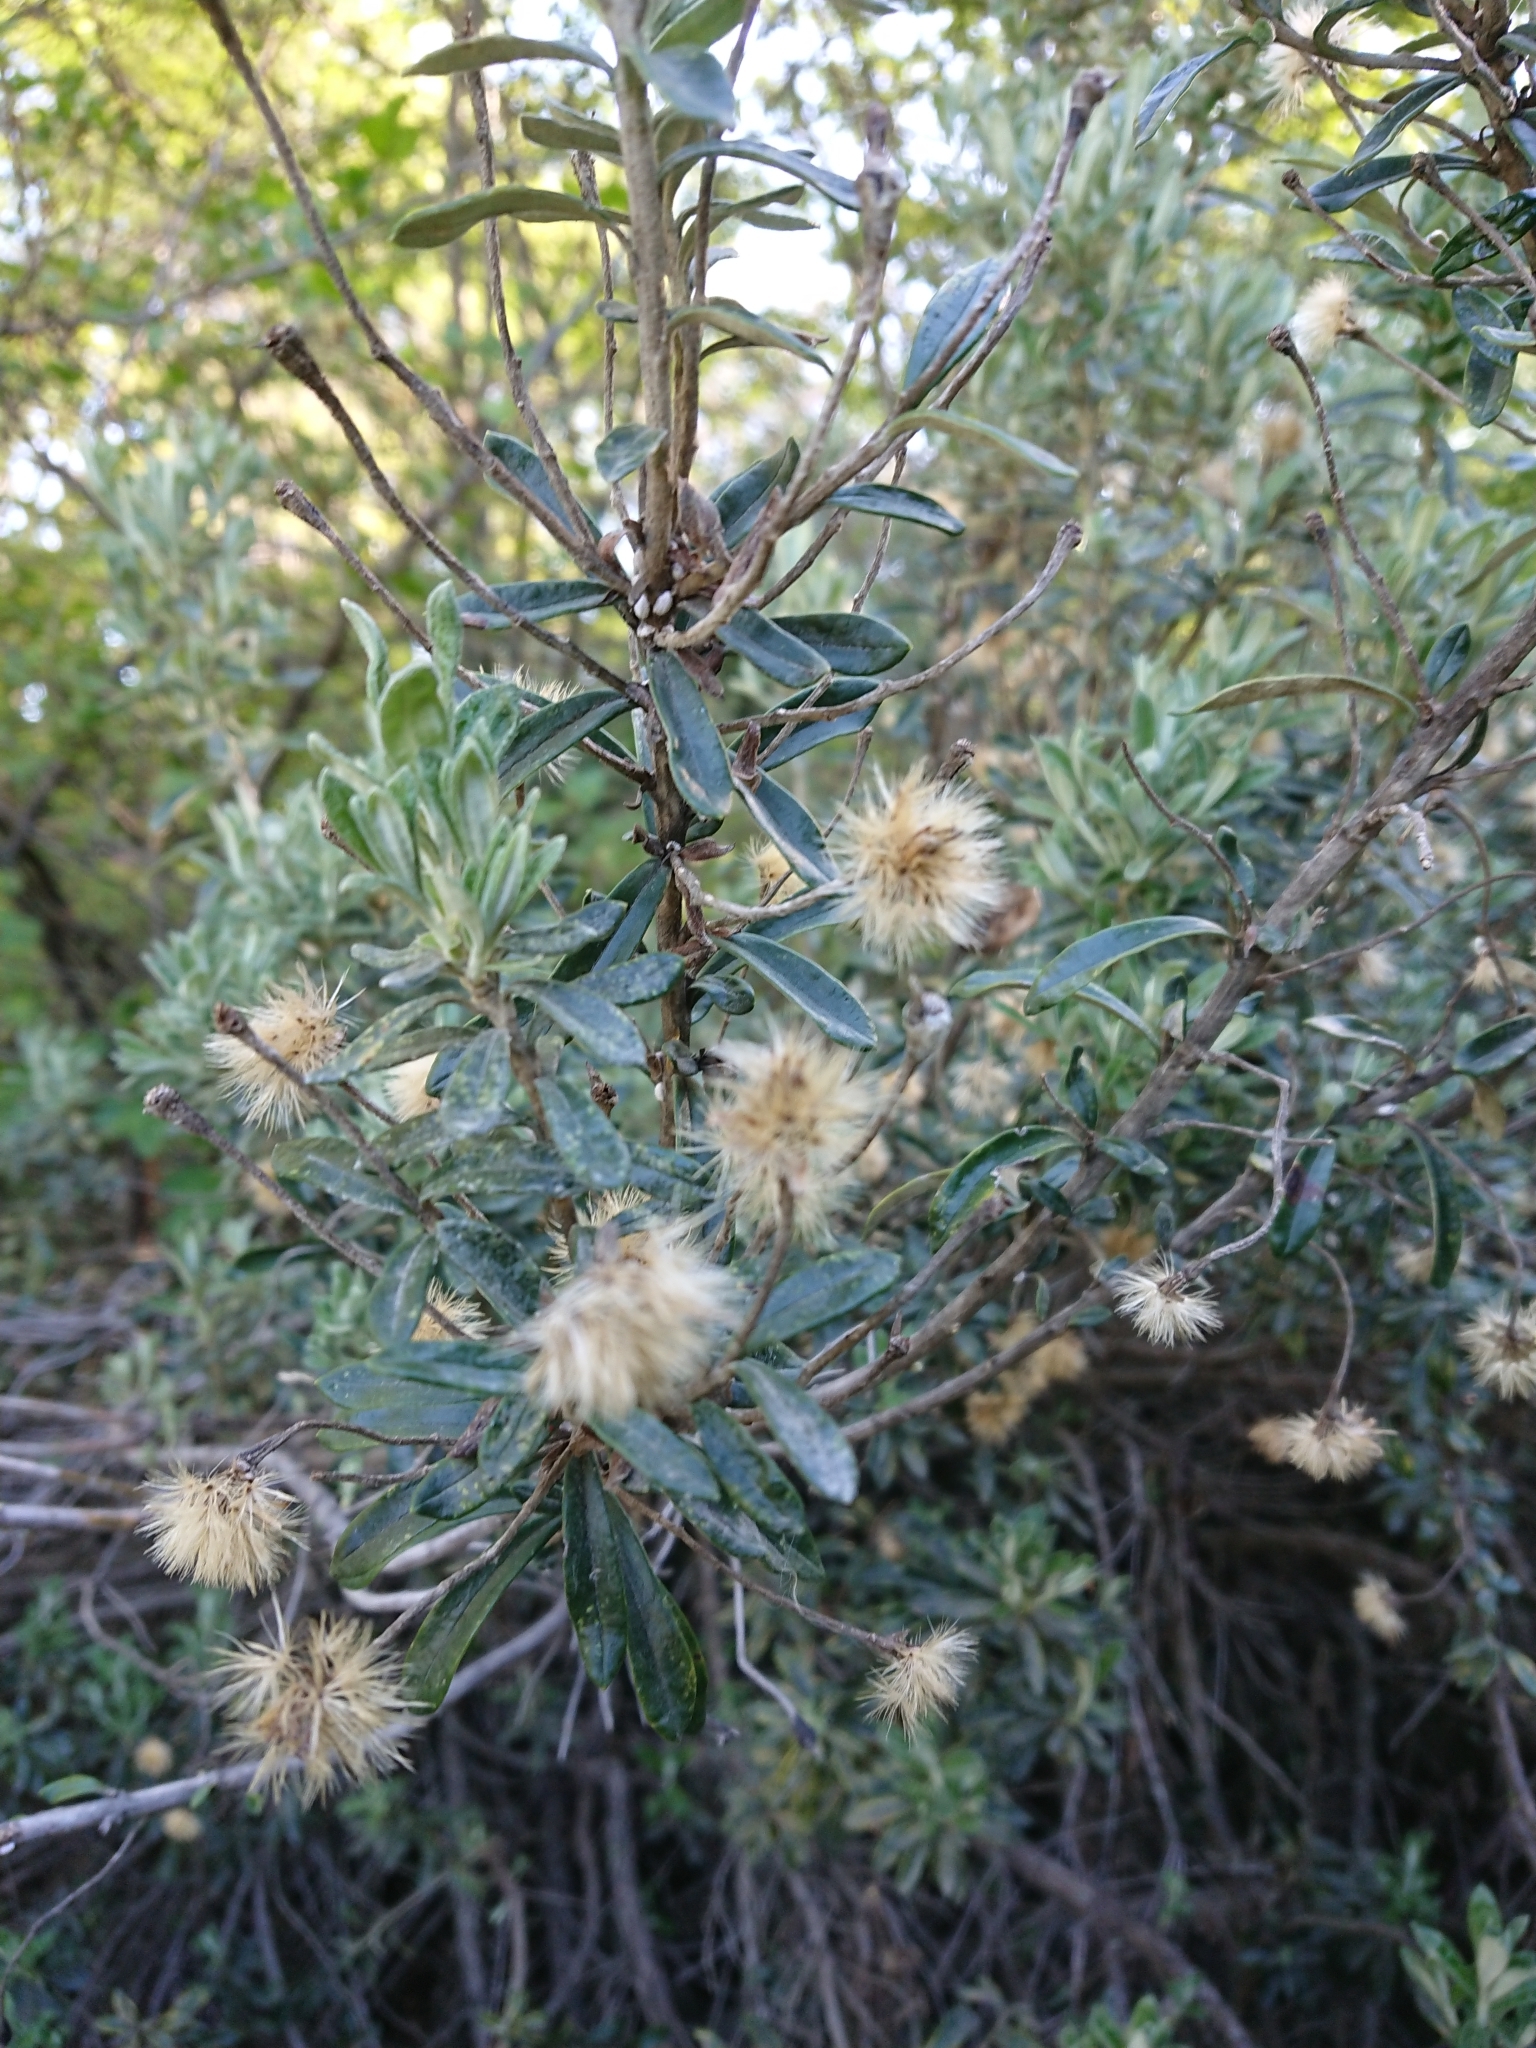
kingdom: Plantae
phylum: Tracheophyta
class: Magnoliopsida
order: Asterales
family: Asteraceae
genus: Chiliotrichum
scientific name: Chiliotrichum diffusum
